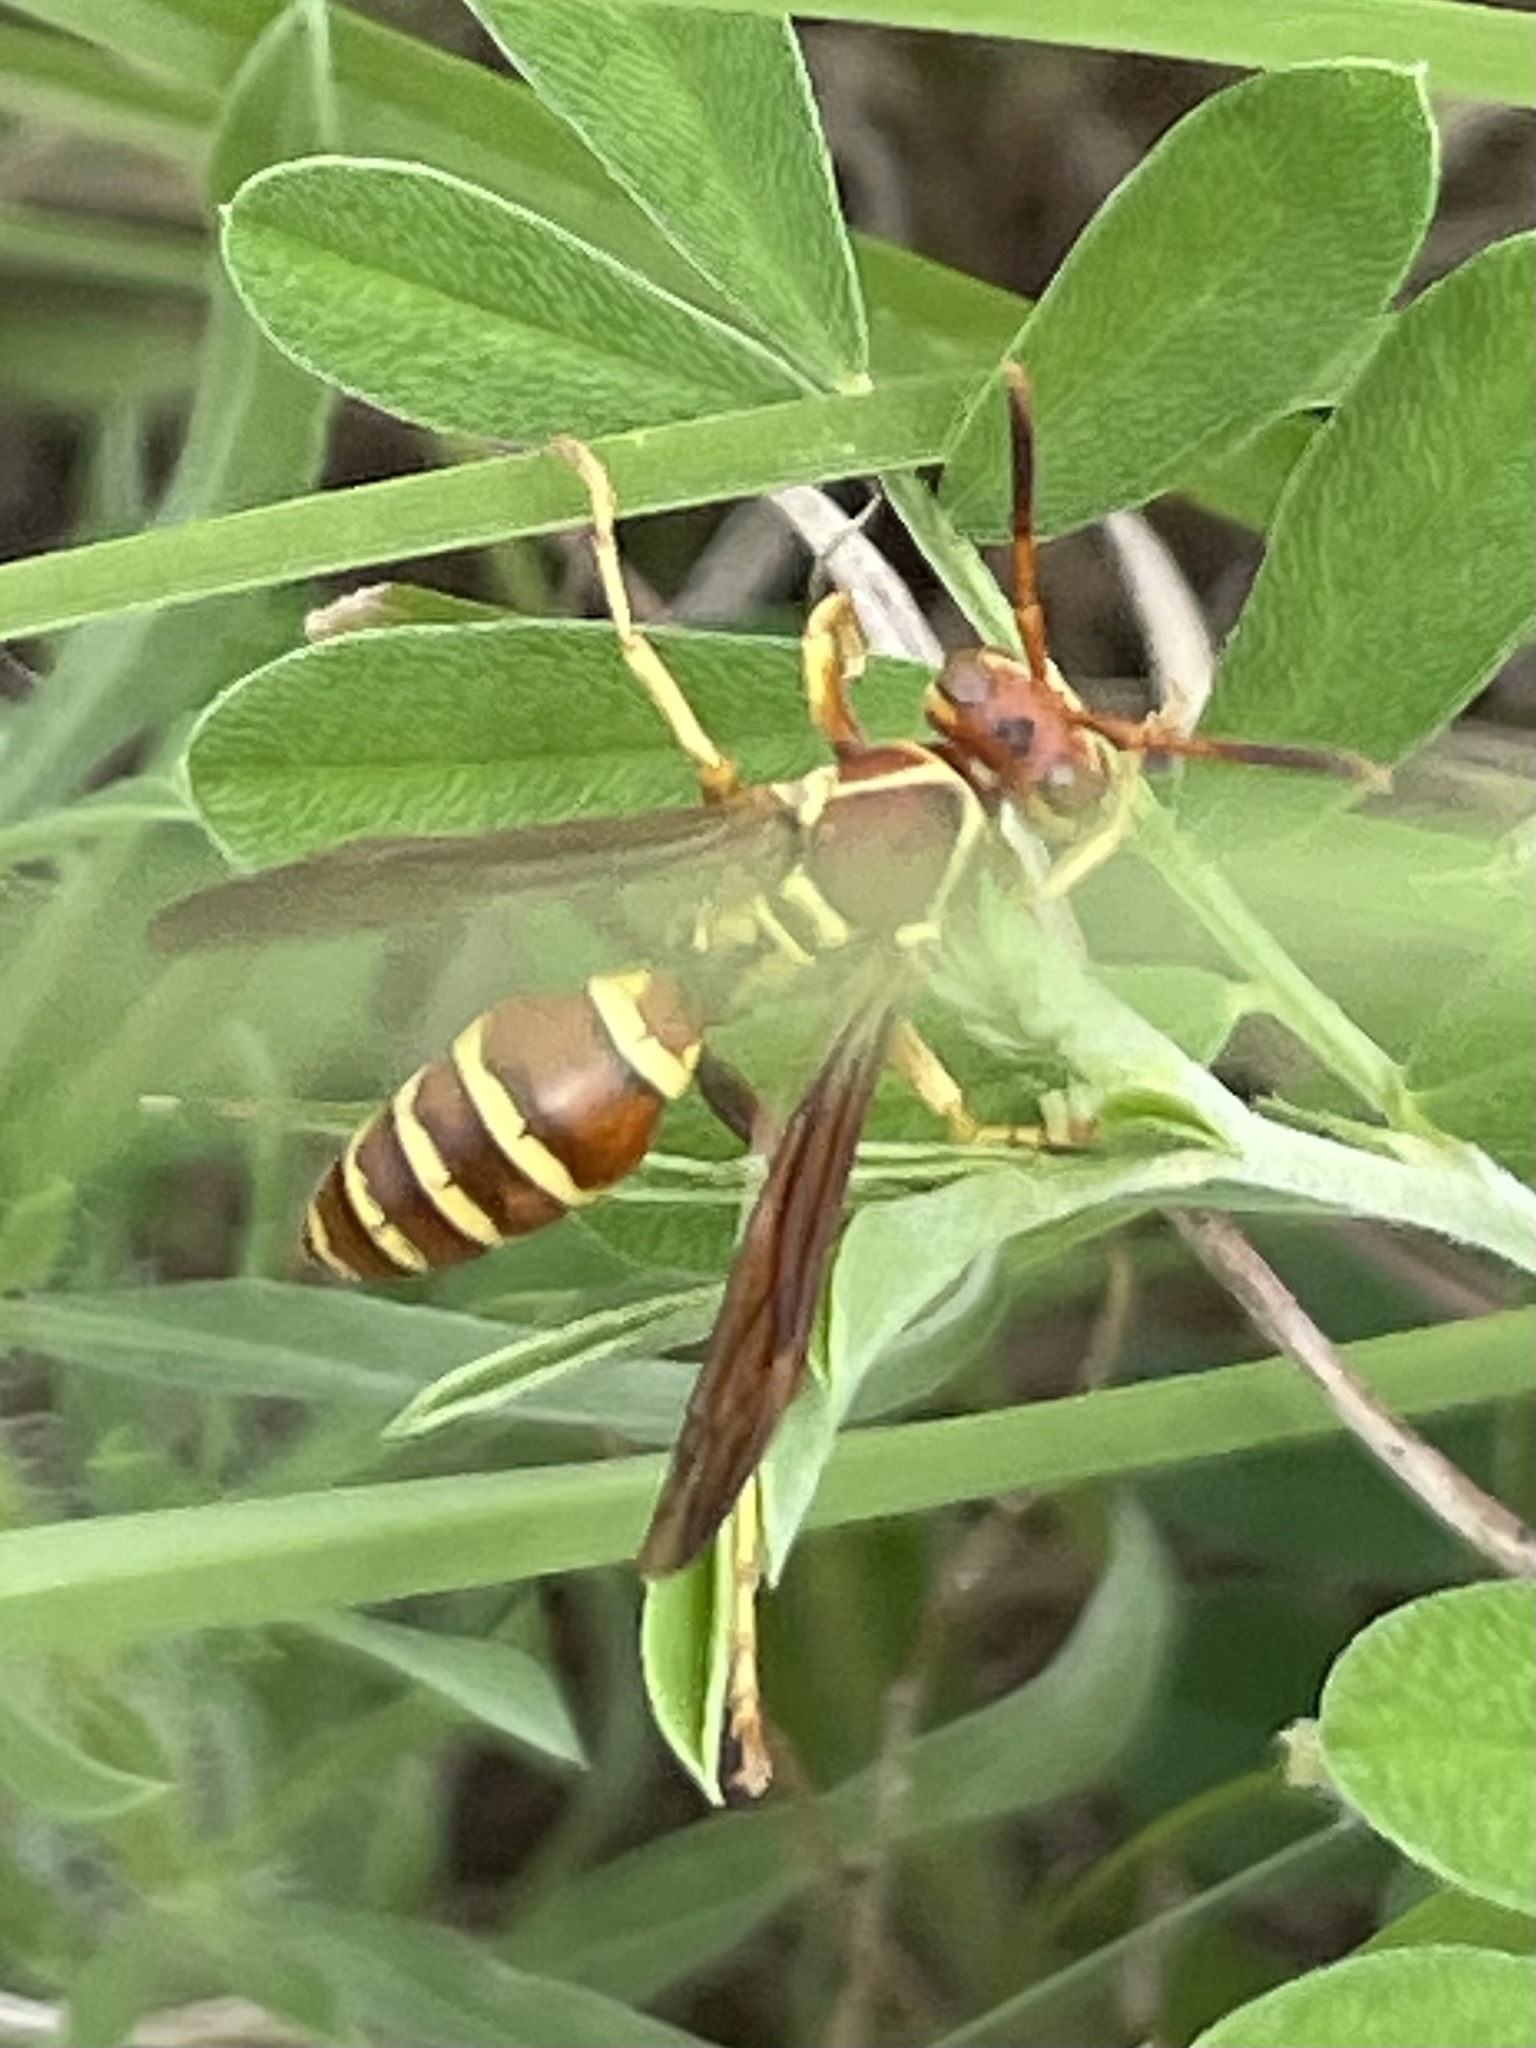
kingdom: Animalia
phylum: Arthropoda
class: Insecta
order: Hymenoptera
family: Eumenidae
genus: Polistes
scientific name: Polistes exclamans
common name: Paper wasp
